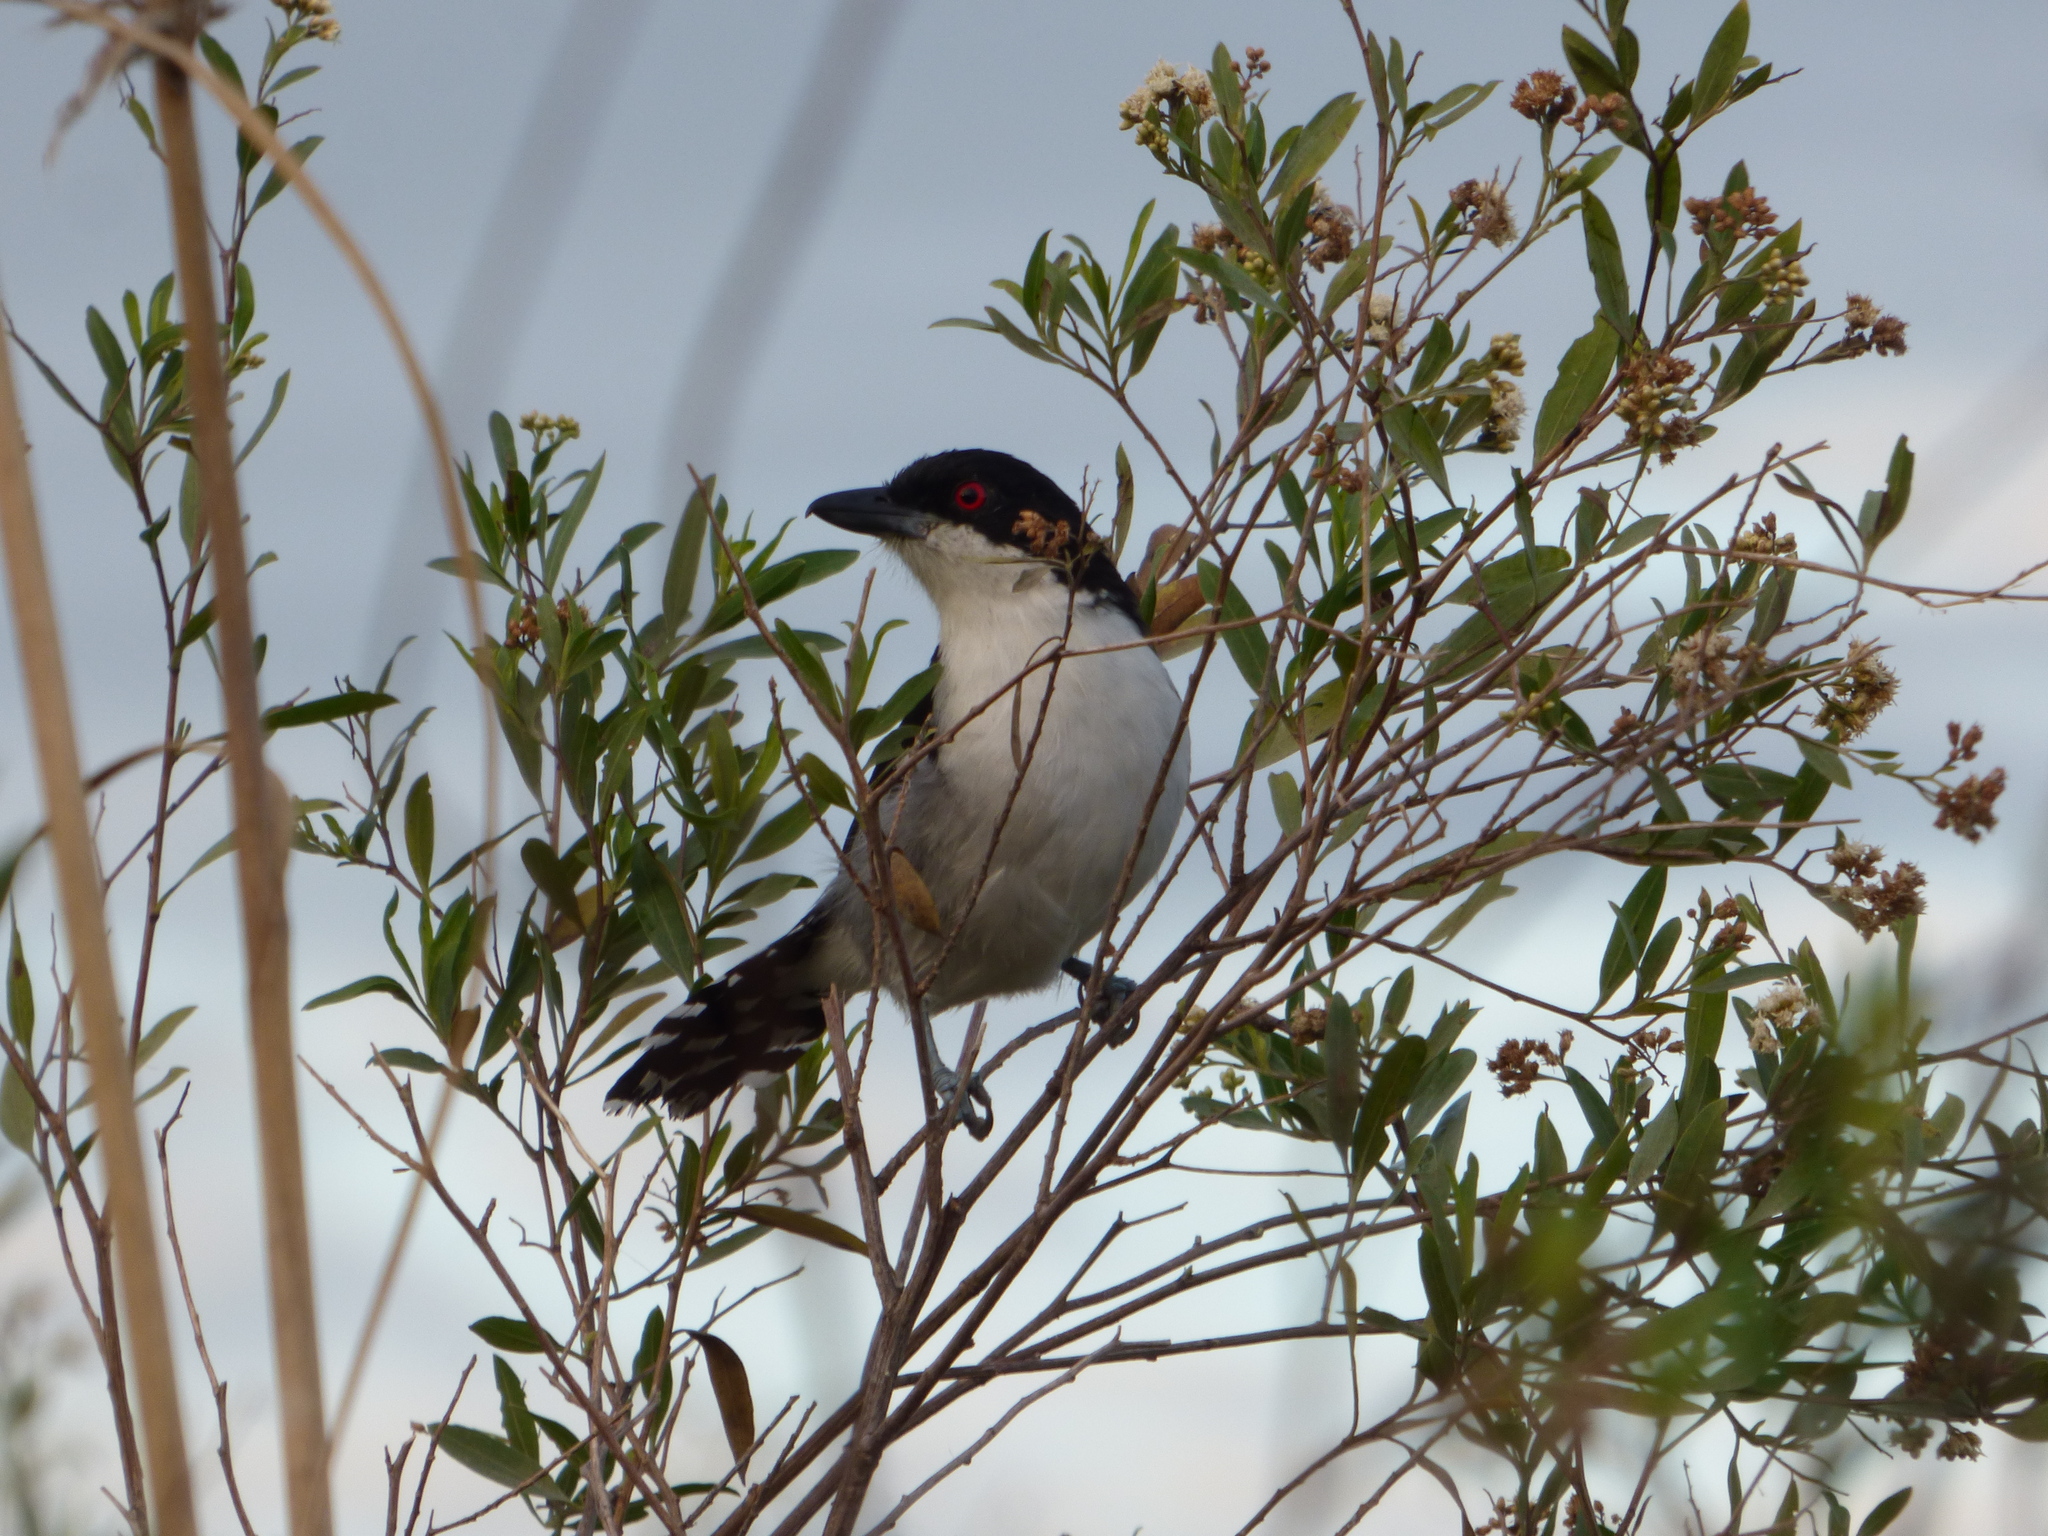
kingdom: Animalia
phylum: Chordata
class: Aves
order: Passeriformes
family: Thamnophilidae
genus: Taraba
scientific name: Taraba major
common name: Great antshrike
